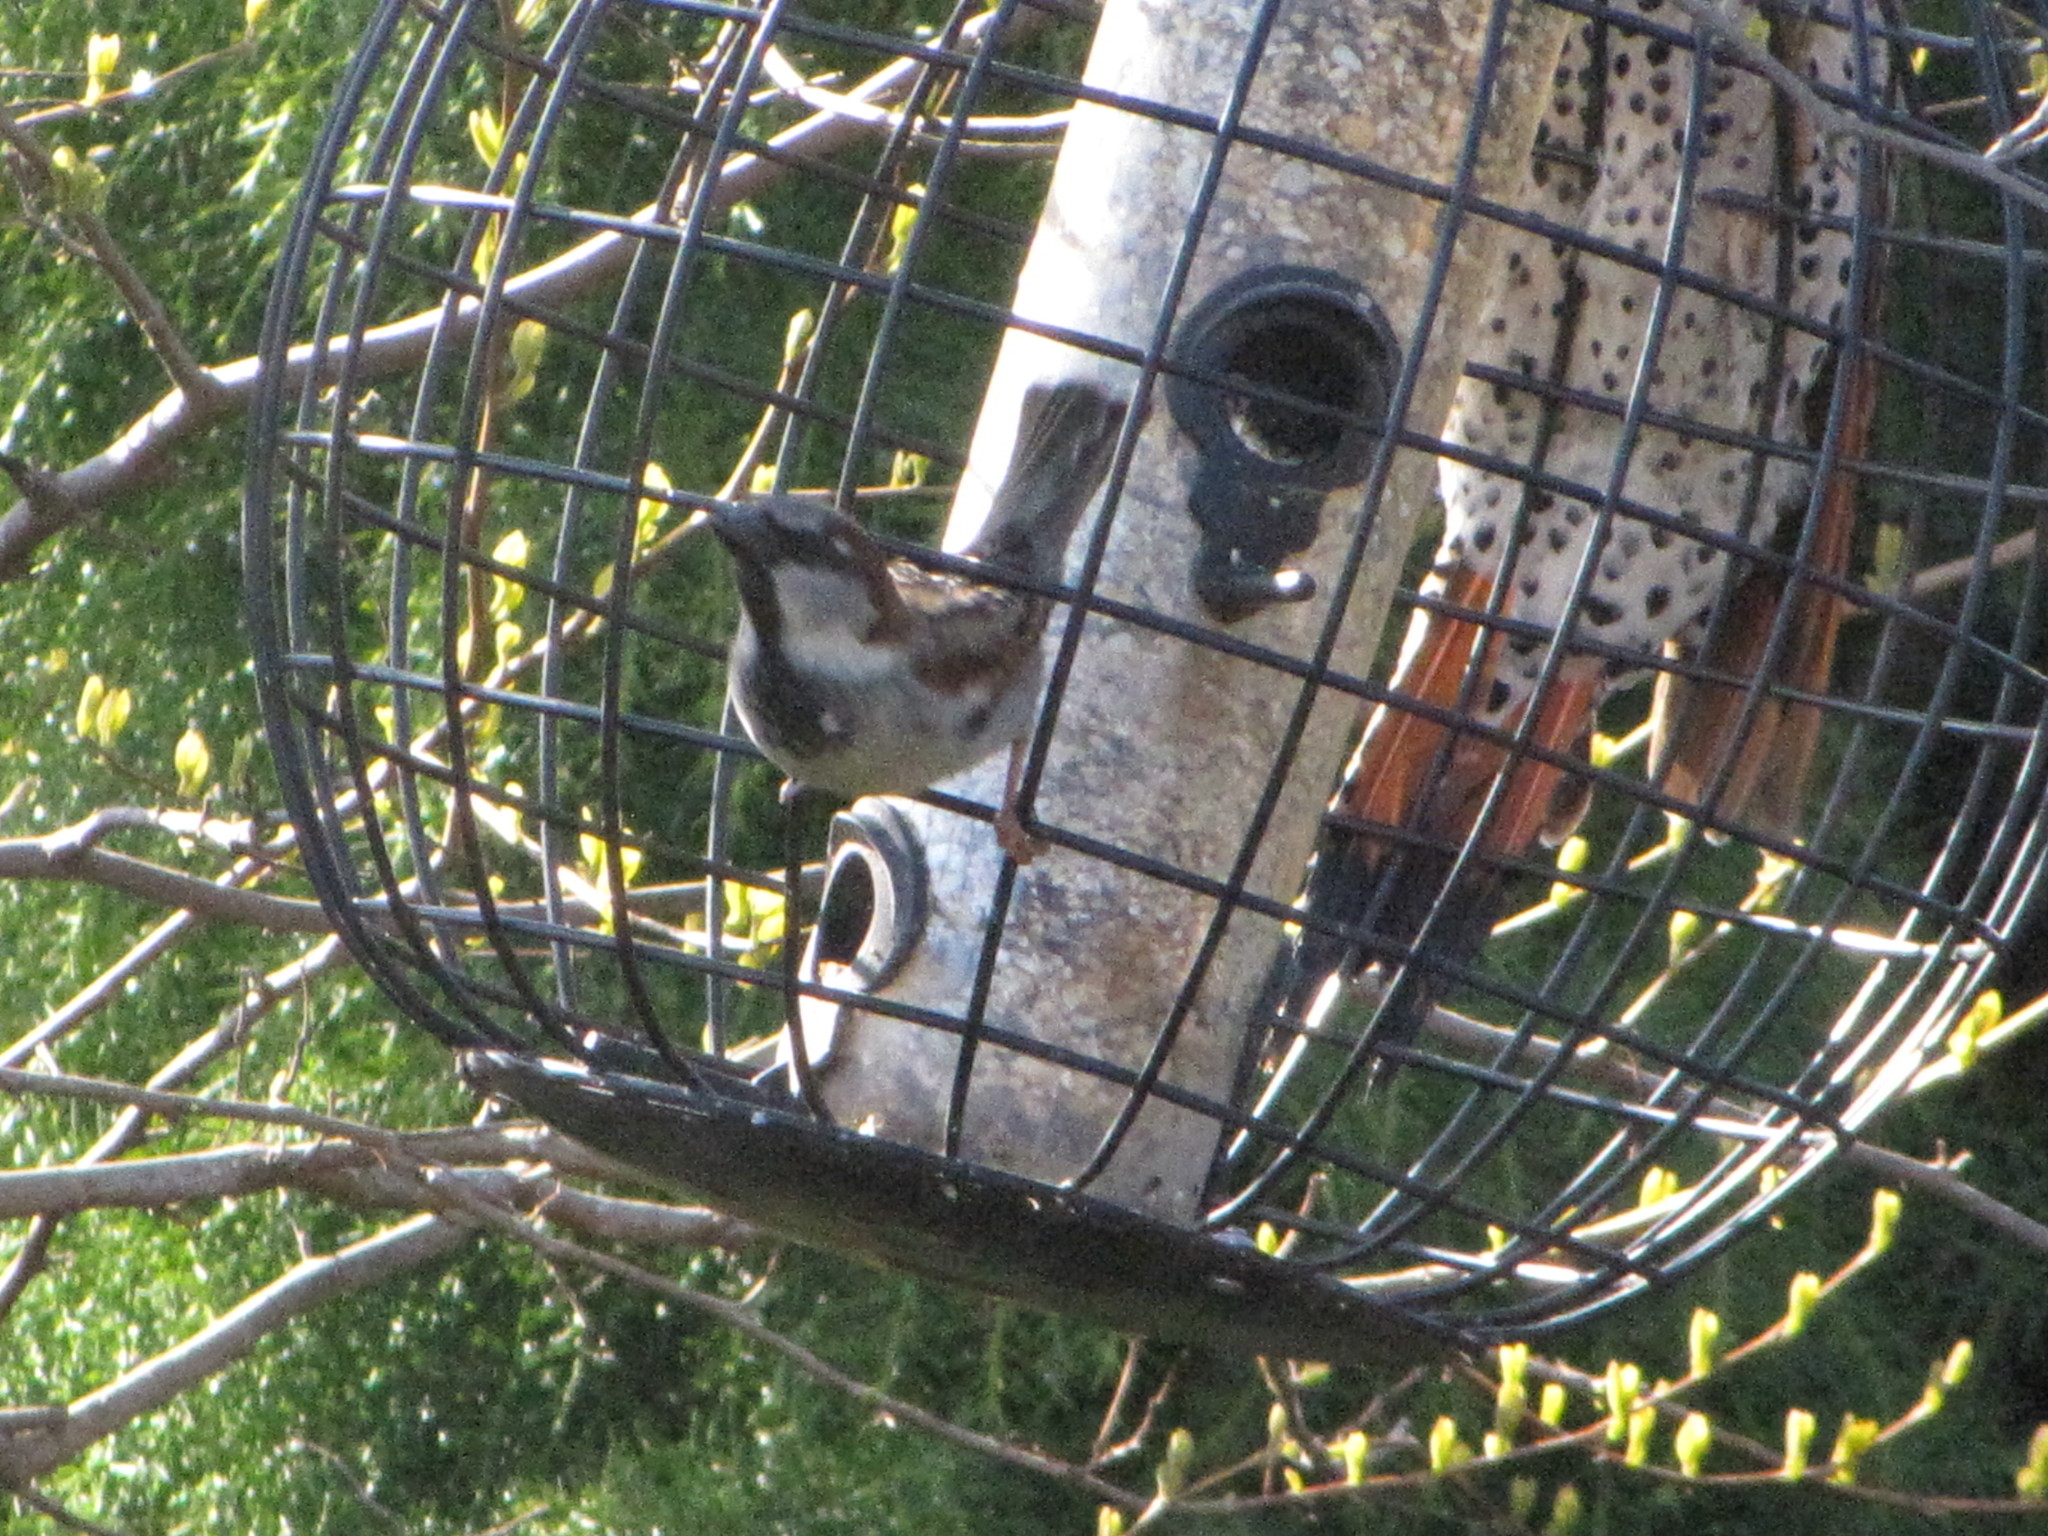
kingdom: Animalia
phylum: Chordata
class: Aves
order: Passeriformes
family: Passeridae
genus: Passer
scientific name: Passer domesticus
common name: House sparrow
